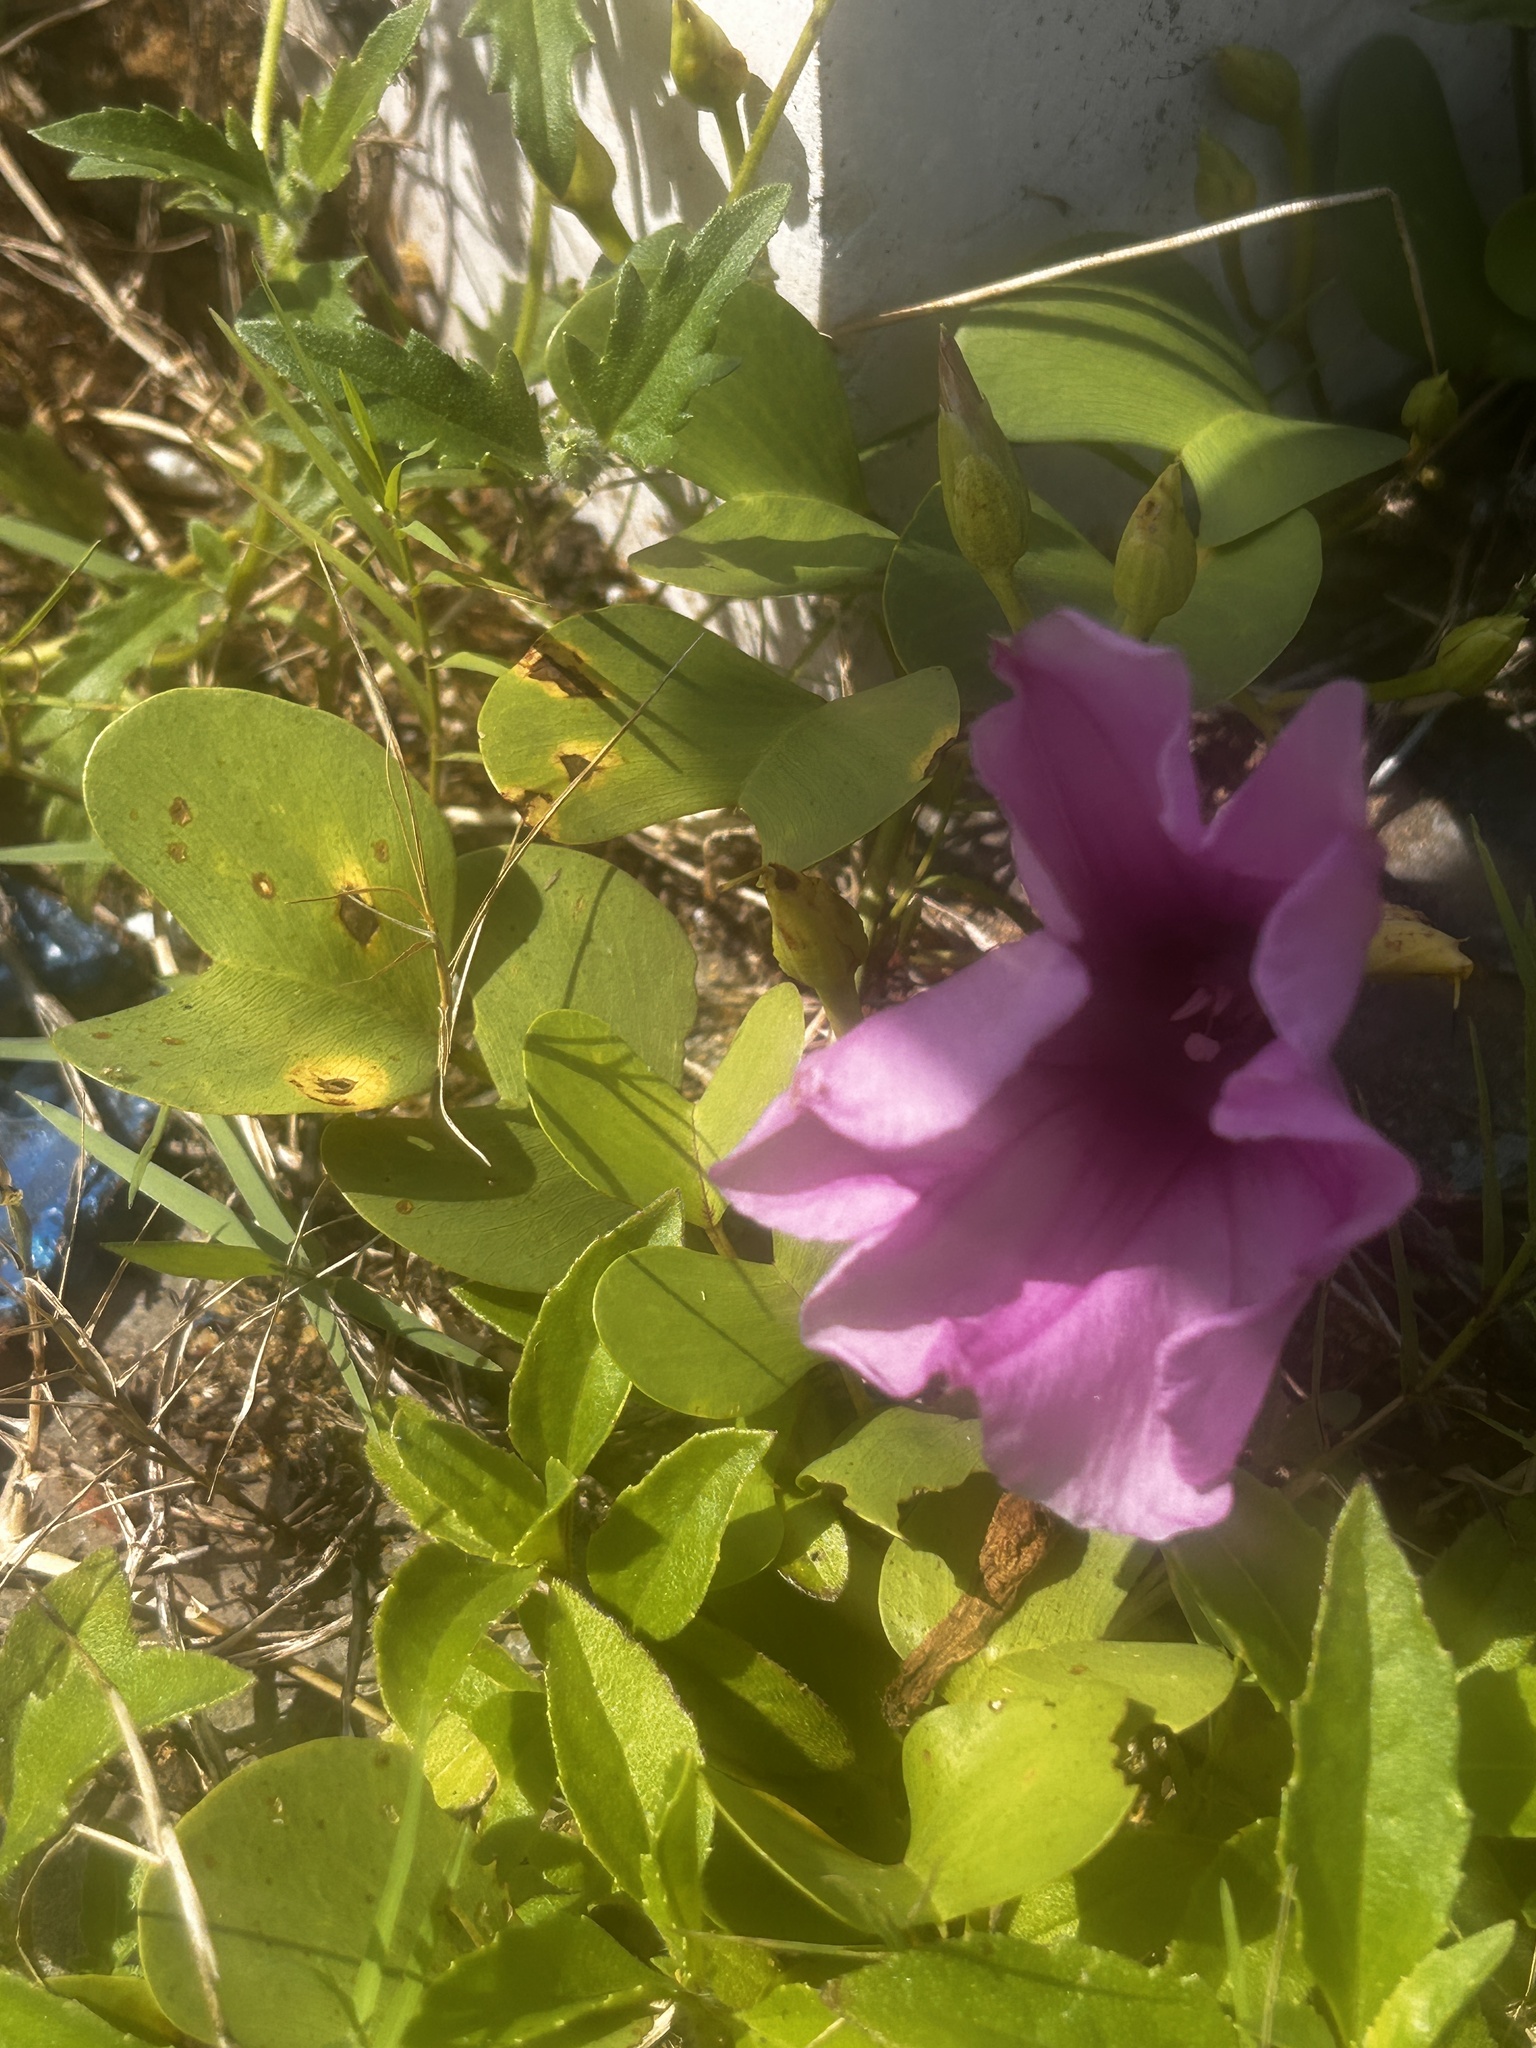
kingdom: Plantae
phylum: Tracheophyta
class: Magnoliopsida
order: Solanales
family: Convolvulaceae
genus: Ipomoea
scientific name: Ipomoea pes-caprae
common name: Beach morning glory
